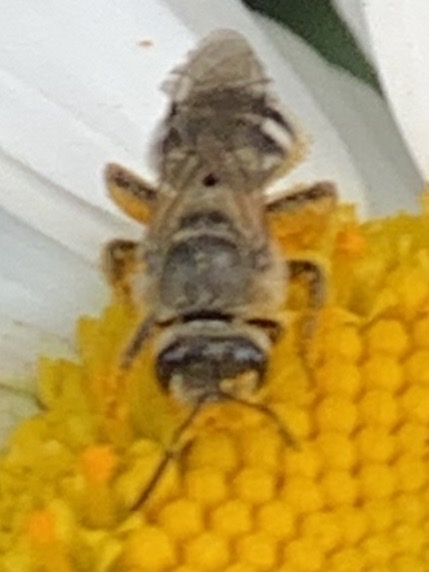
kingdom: Animalia
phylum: Arthropoda
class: Insecta
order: Hymenoptera
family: Halictidae
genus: Lasioglossum
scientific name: Lasioglossum sisymbrii
